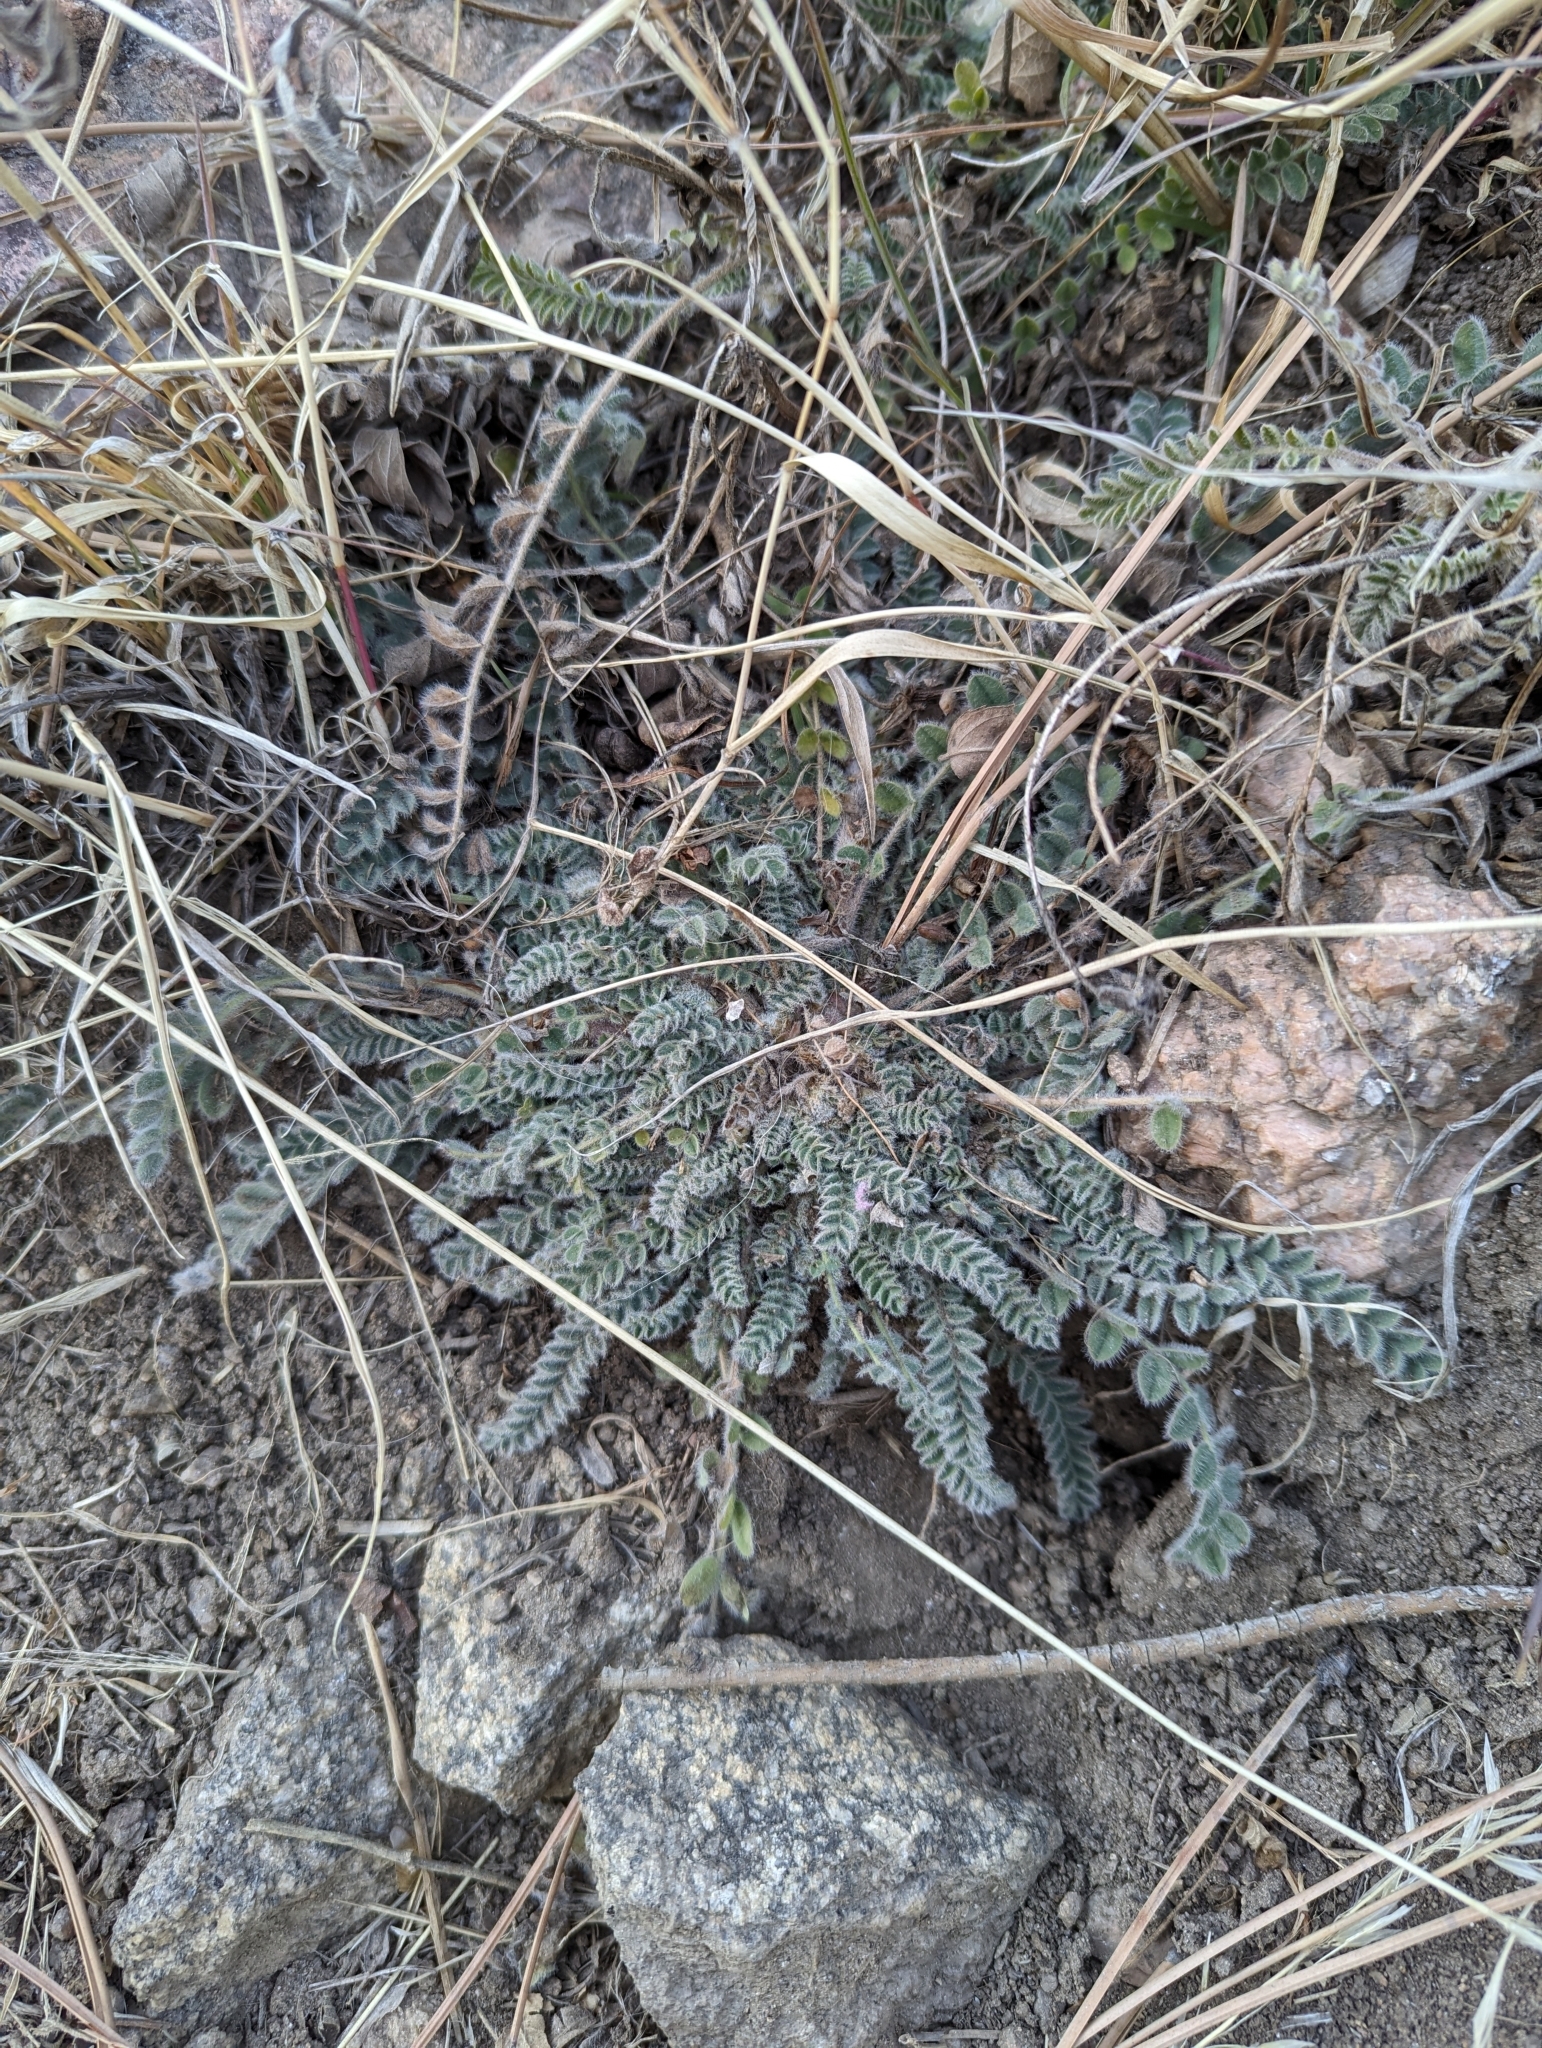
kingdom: Plantae
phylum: Tracheophyta
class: Magnoliopsida
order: Fabales
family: Fabaceae
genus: Astragalus
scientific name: Astragalus parryi
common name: Parry milk-vetch
